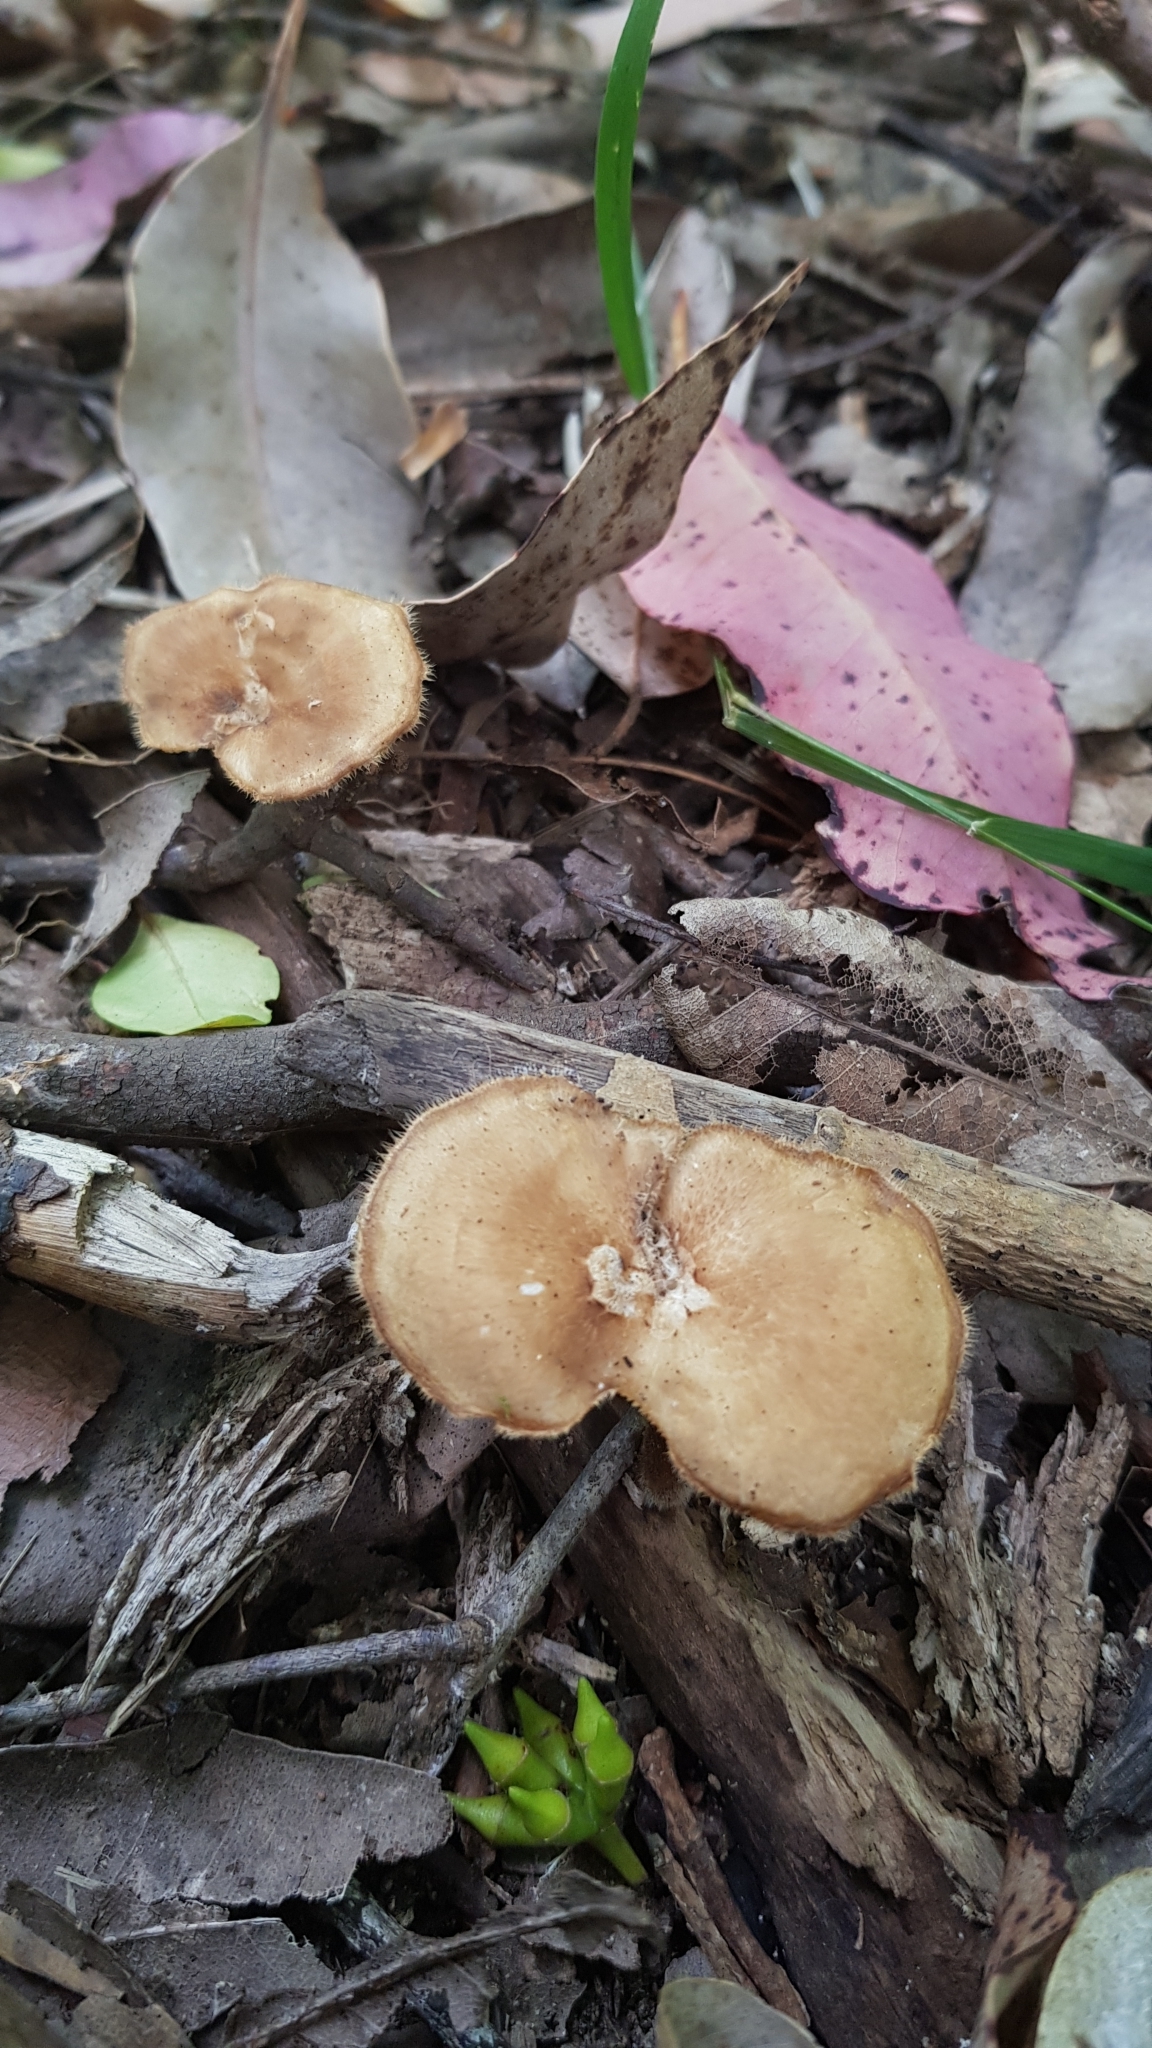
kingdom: Fungi
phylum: Basidiomycota
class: Agaricomycetes
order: Polyporales
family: Polyporaceae
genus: Lentinus
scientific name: Lentinus arcularius
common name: Spring polypore
